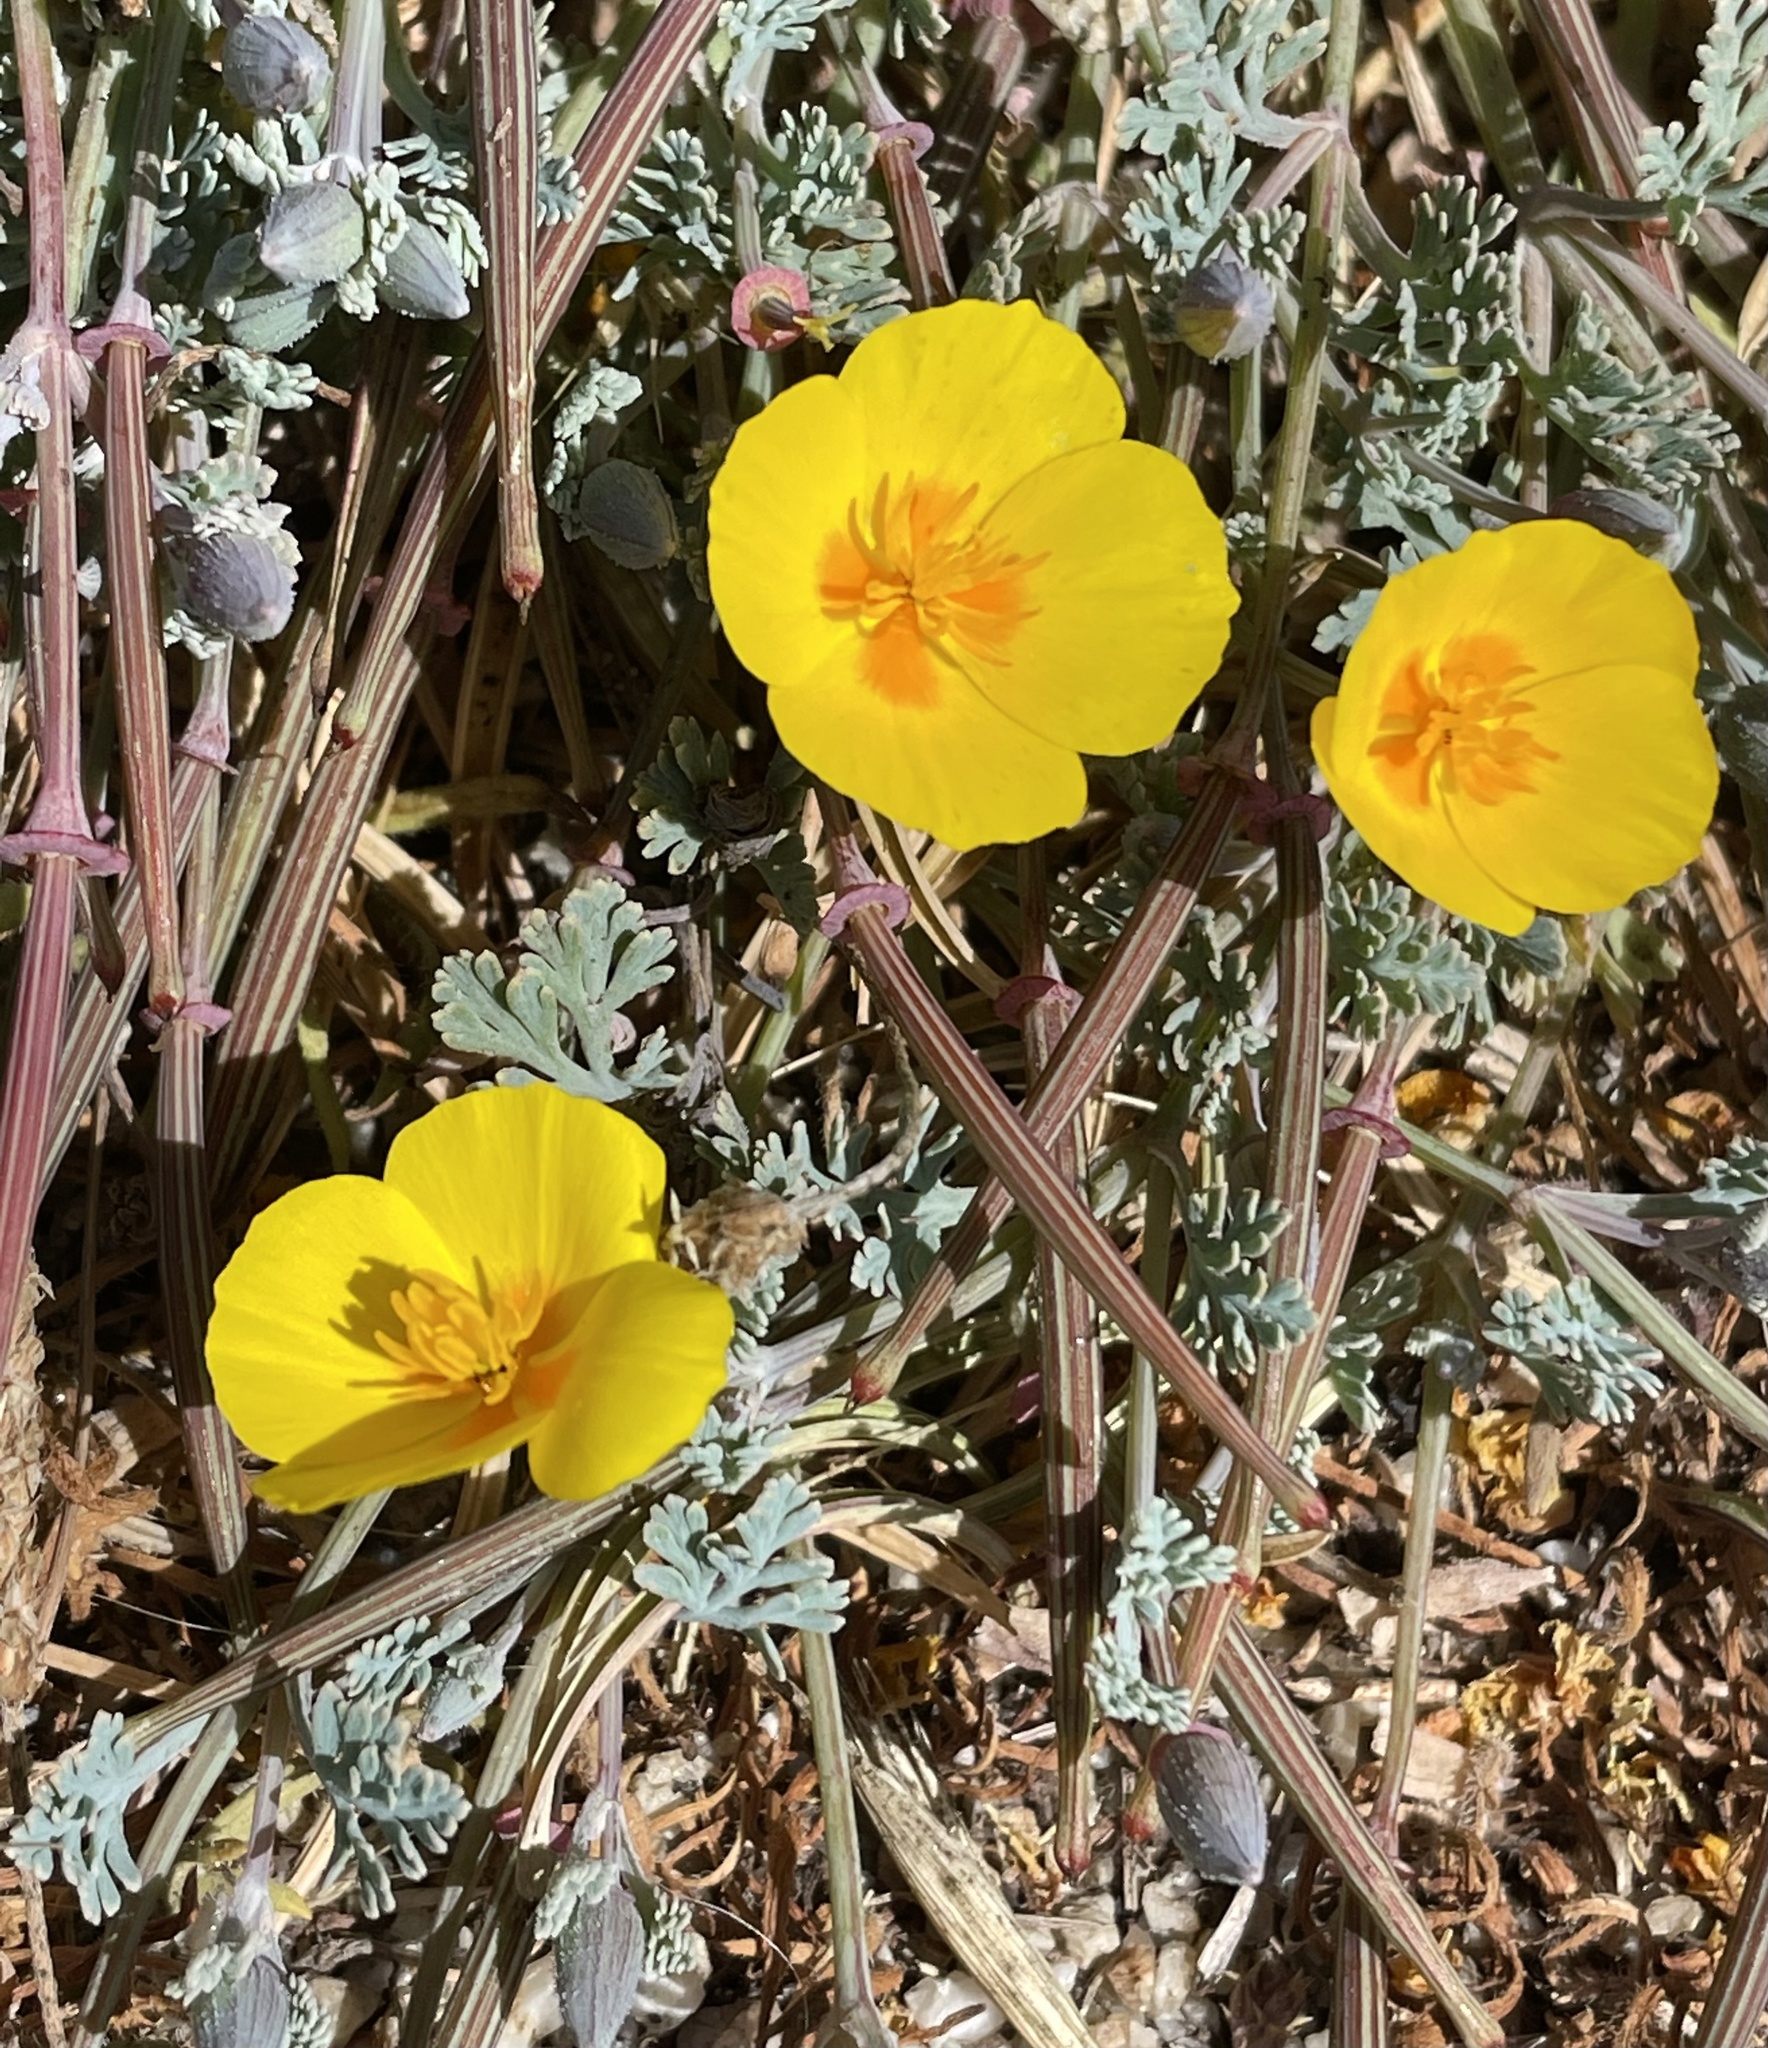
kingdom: Plantae
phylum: Tracheophyta
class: Magnoliopsida
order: Ranunculales
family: Papaveraceae
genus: Eschscholzia
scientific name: Eschscholzia californica
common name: California poppy
